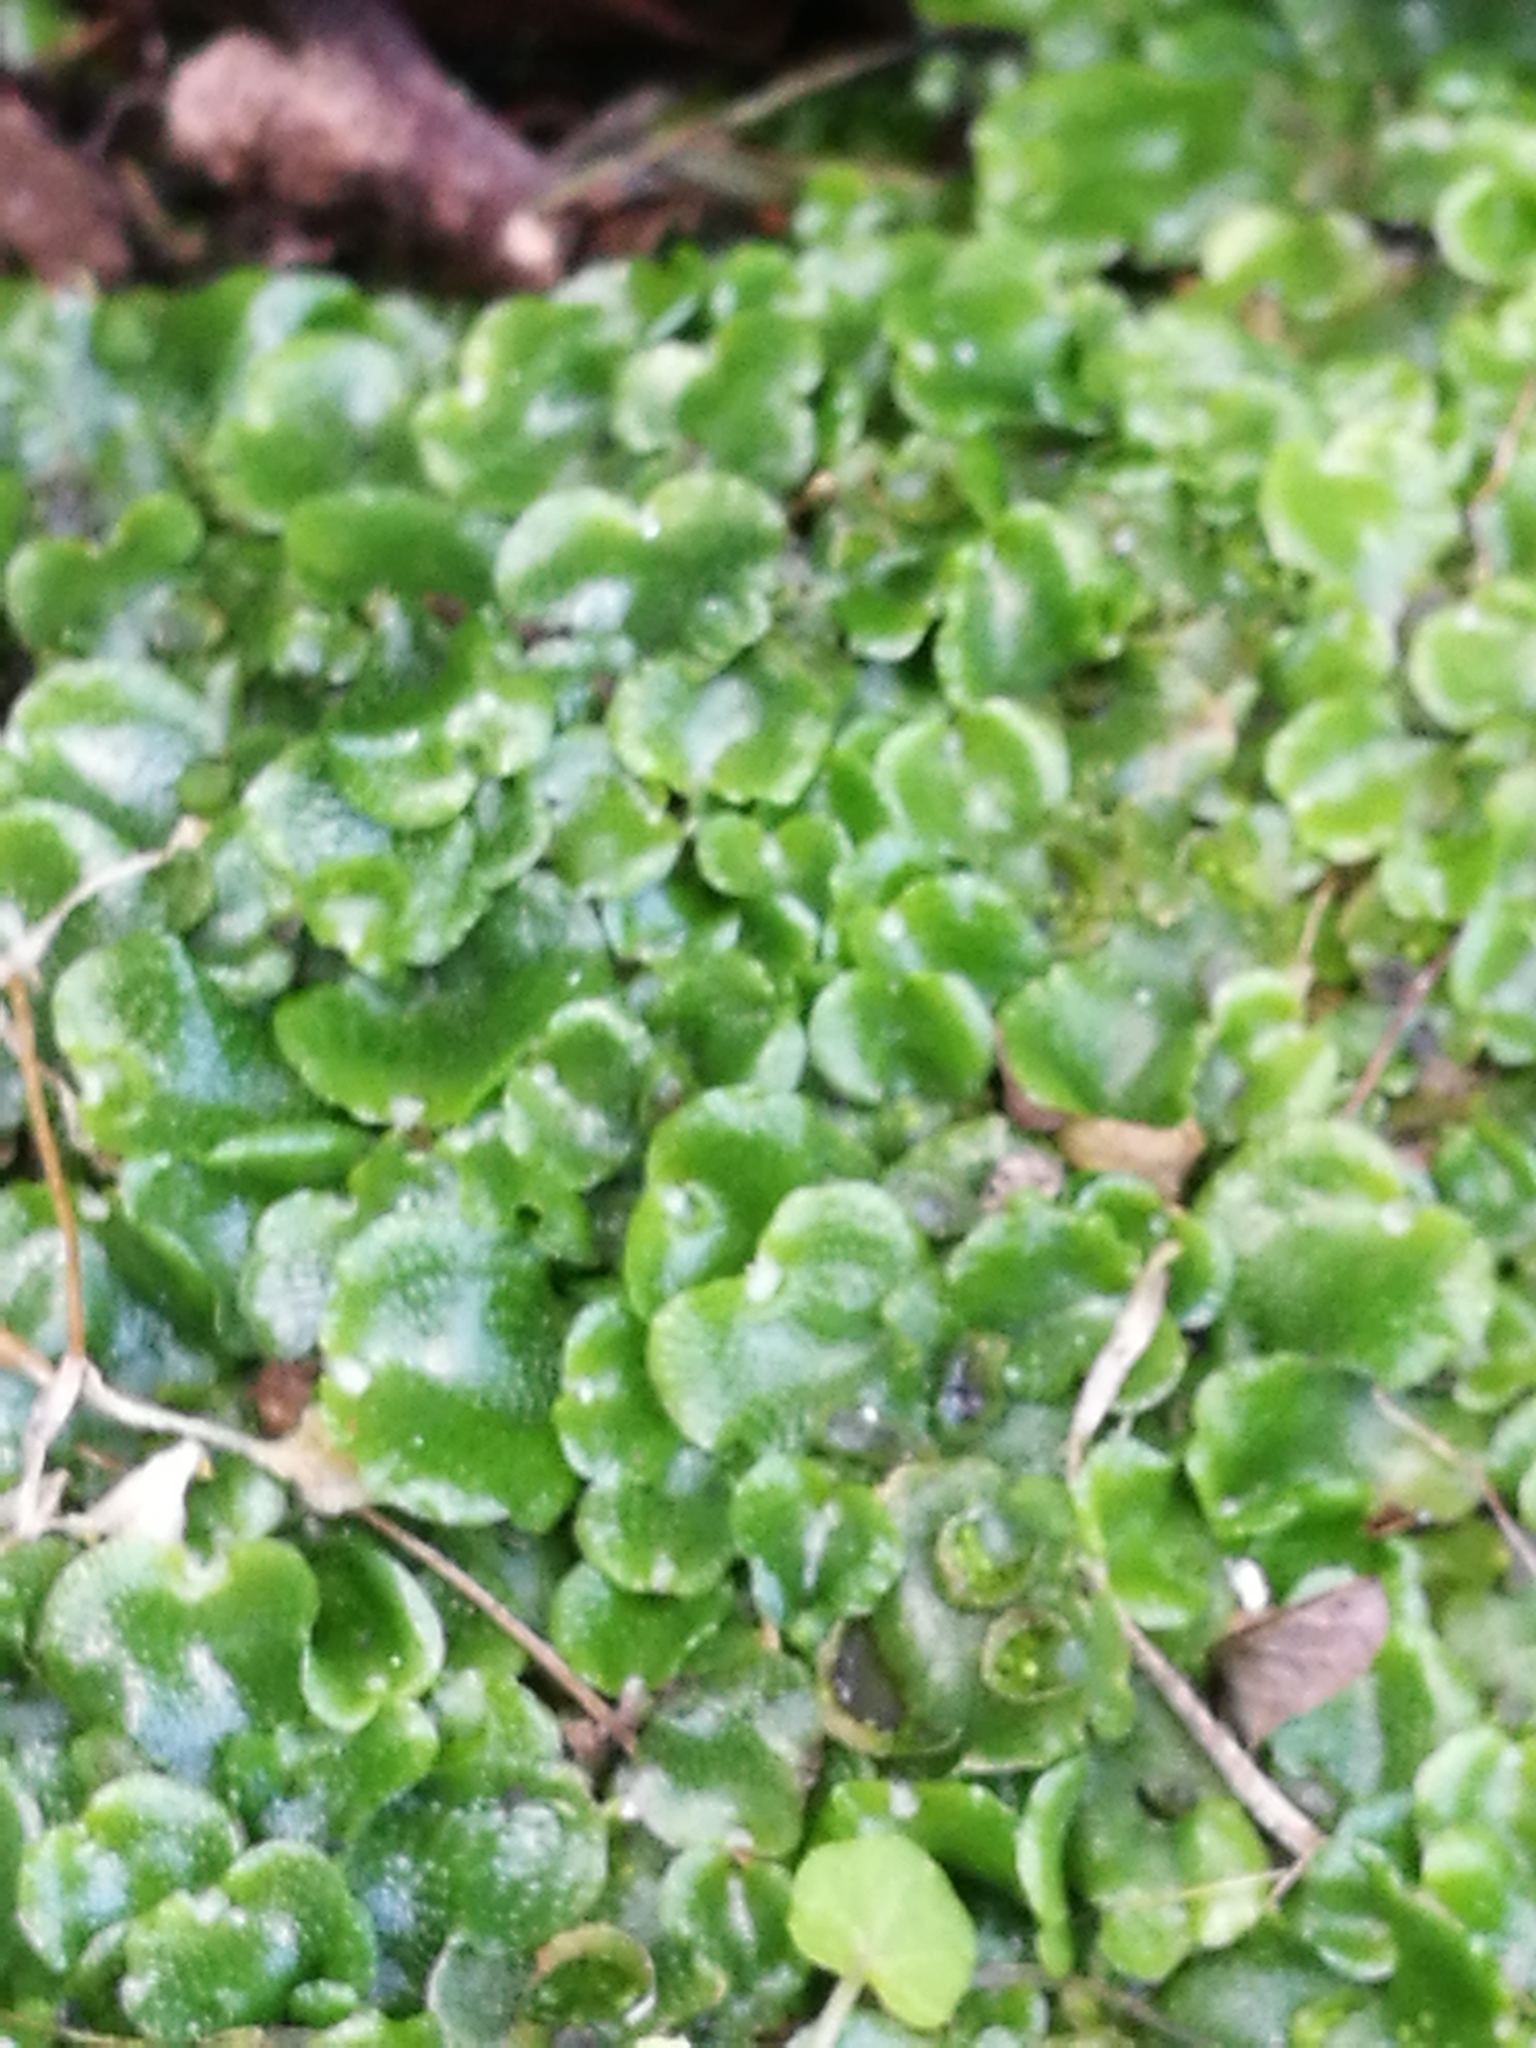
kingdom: Plantae
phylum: Marchantiophyta
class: Marchantiopsida
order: Lunulariales
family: Lunulariaceae
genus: Lunularia
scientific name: Lunularia cruciata
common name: Crescent-cup liverwort
